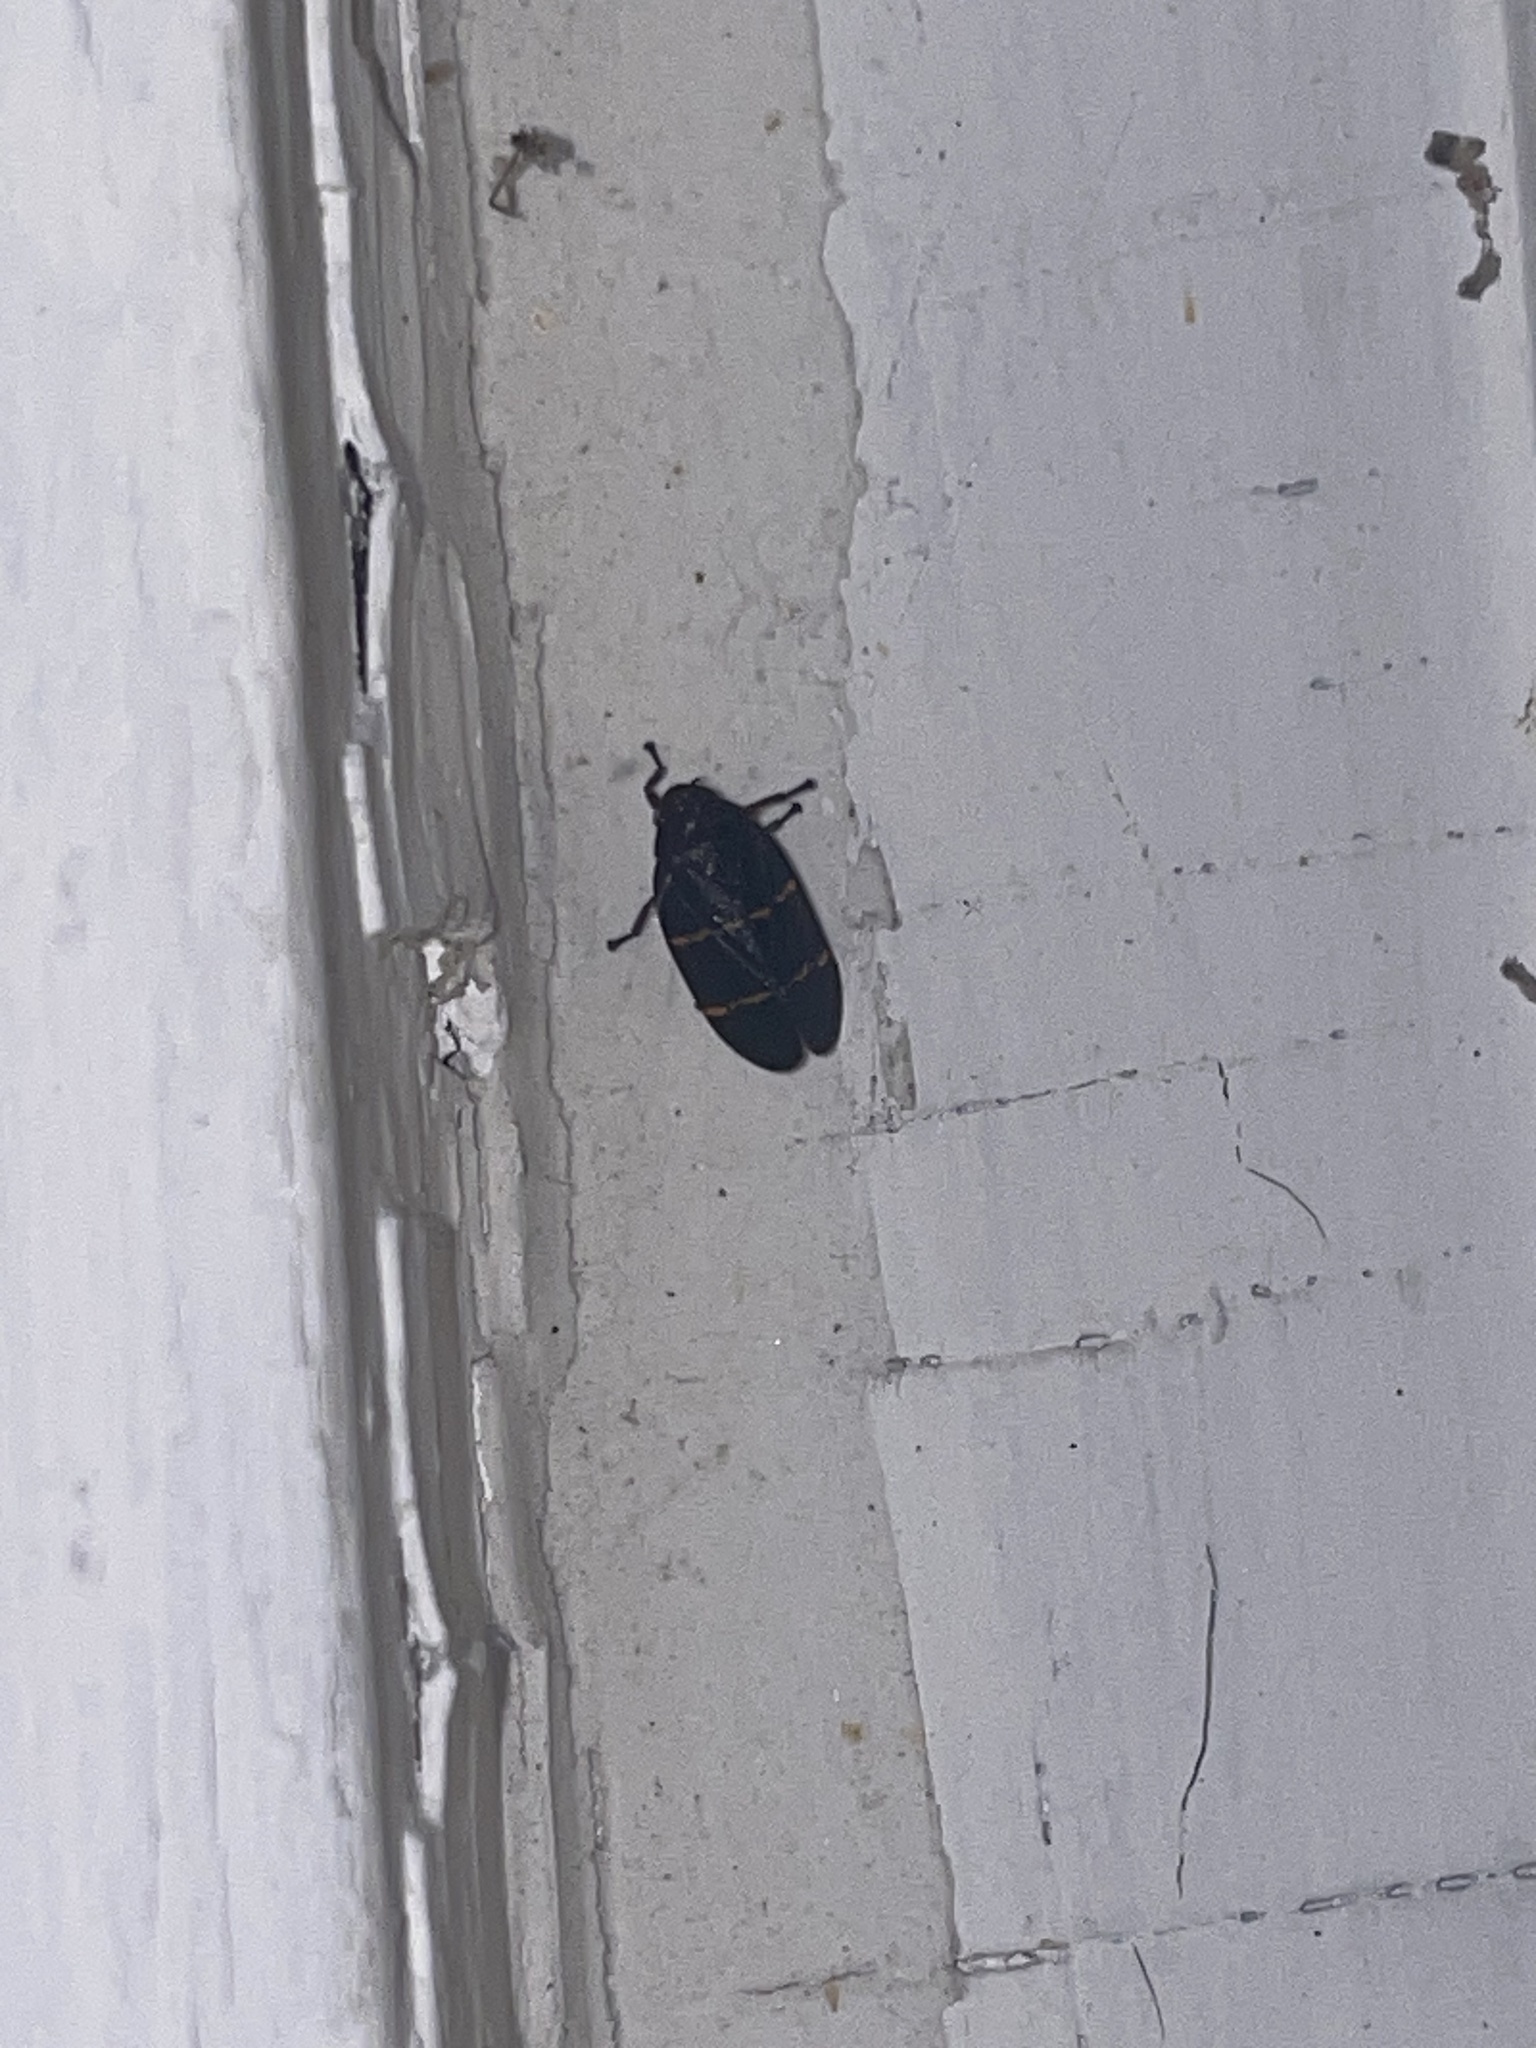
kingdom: Animalia
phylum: Arthropoda
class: Insecta
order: Hemiptera
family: Cercopidae
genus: Prosapia
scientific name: Prosapia bicincta
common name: Twolined spittlebug
